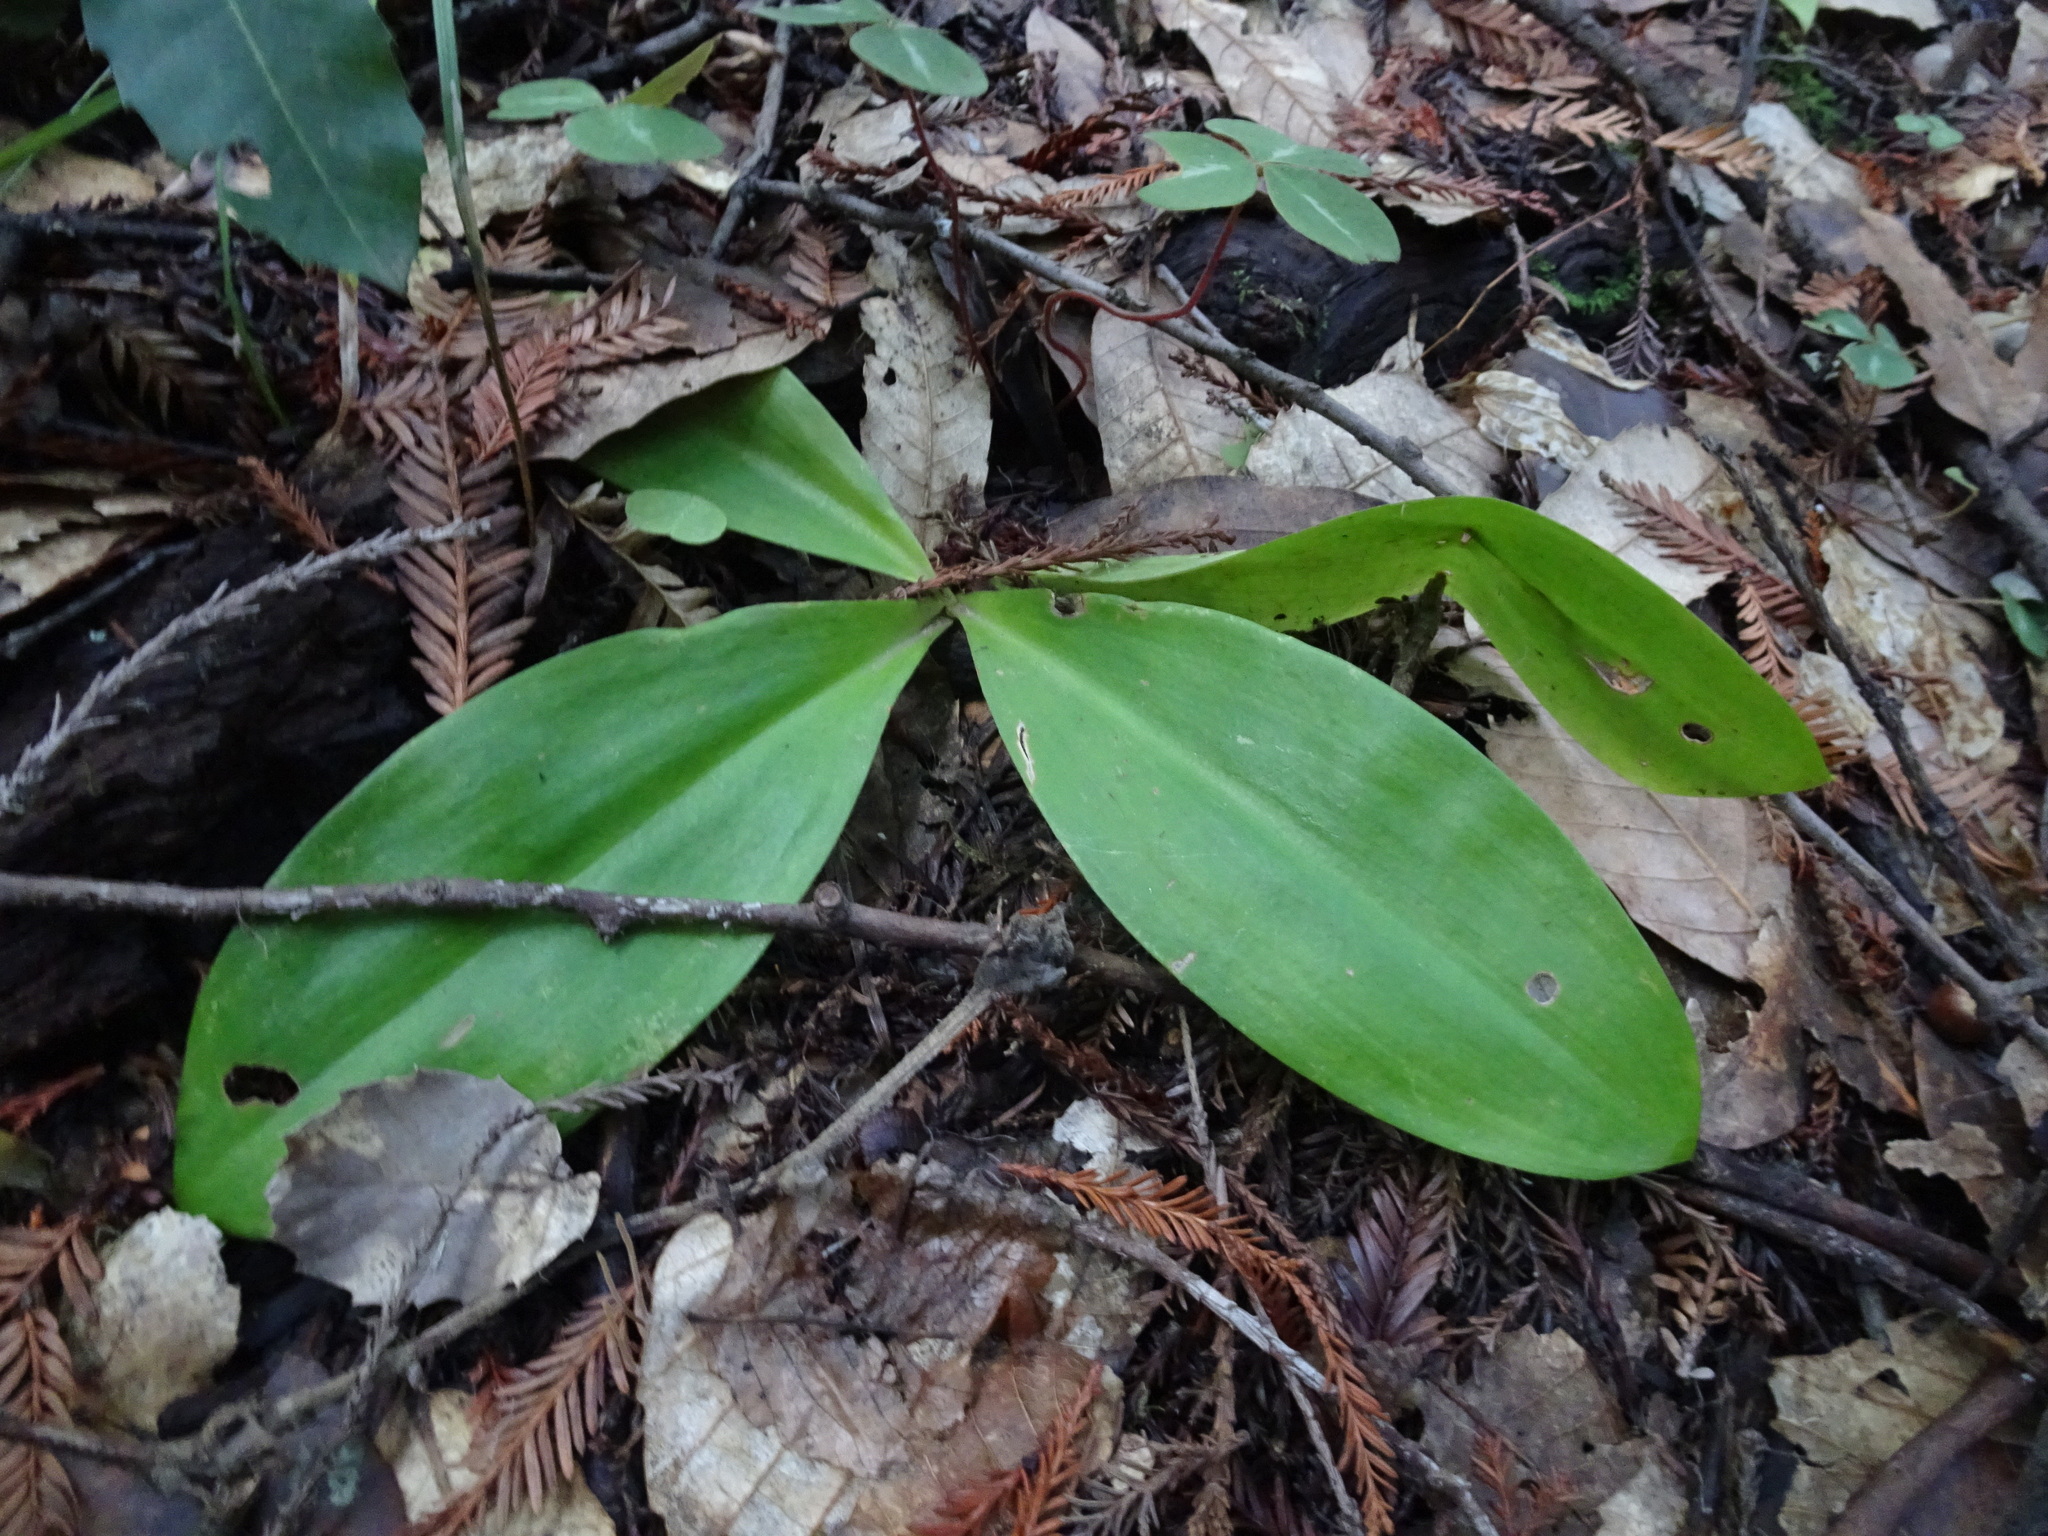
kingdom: Plantae
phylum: Tracheophyta
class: Liliopsida
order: Liliales
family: Liliaceae
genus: Clintonia
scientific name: Clintonia andrewsiana
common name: Red clintonia
